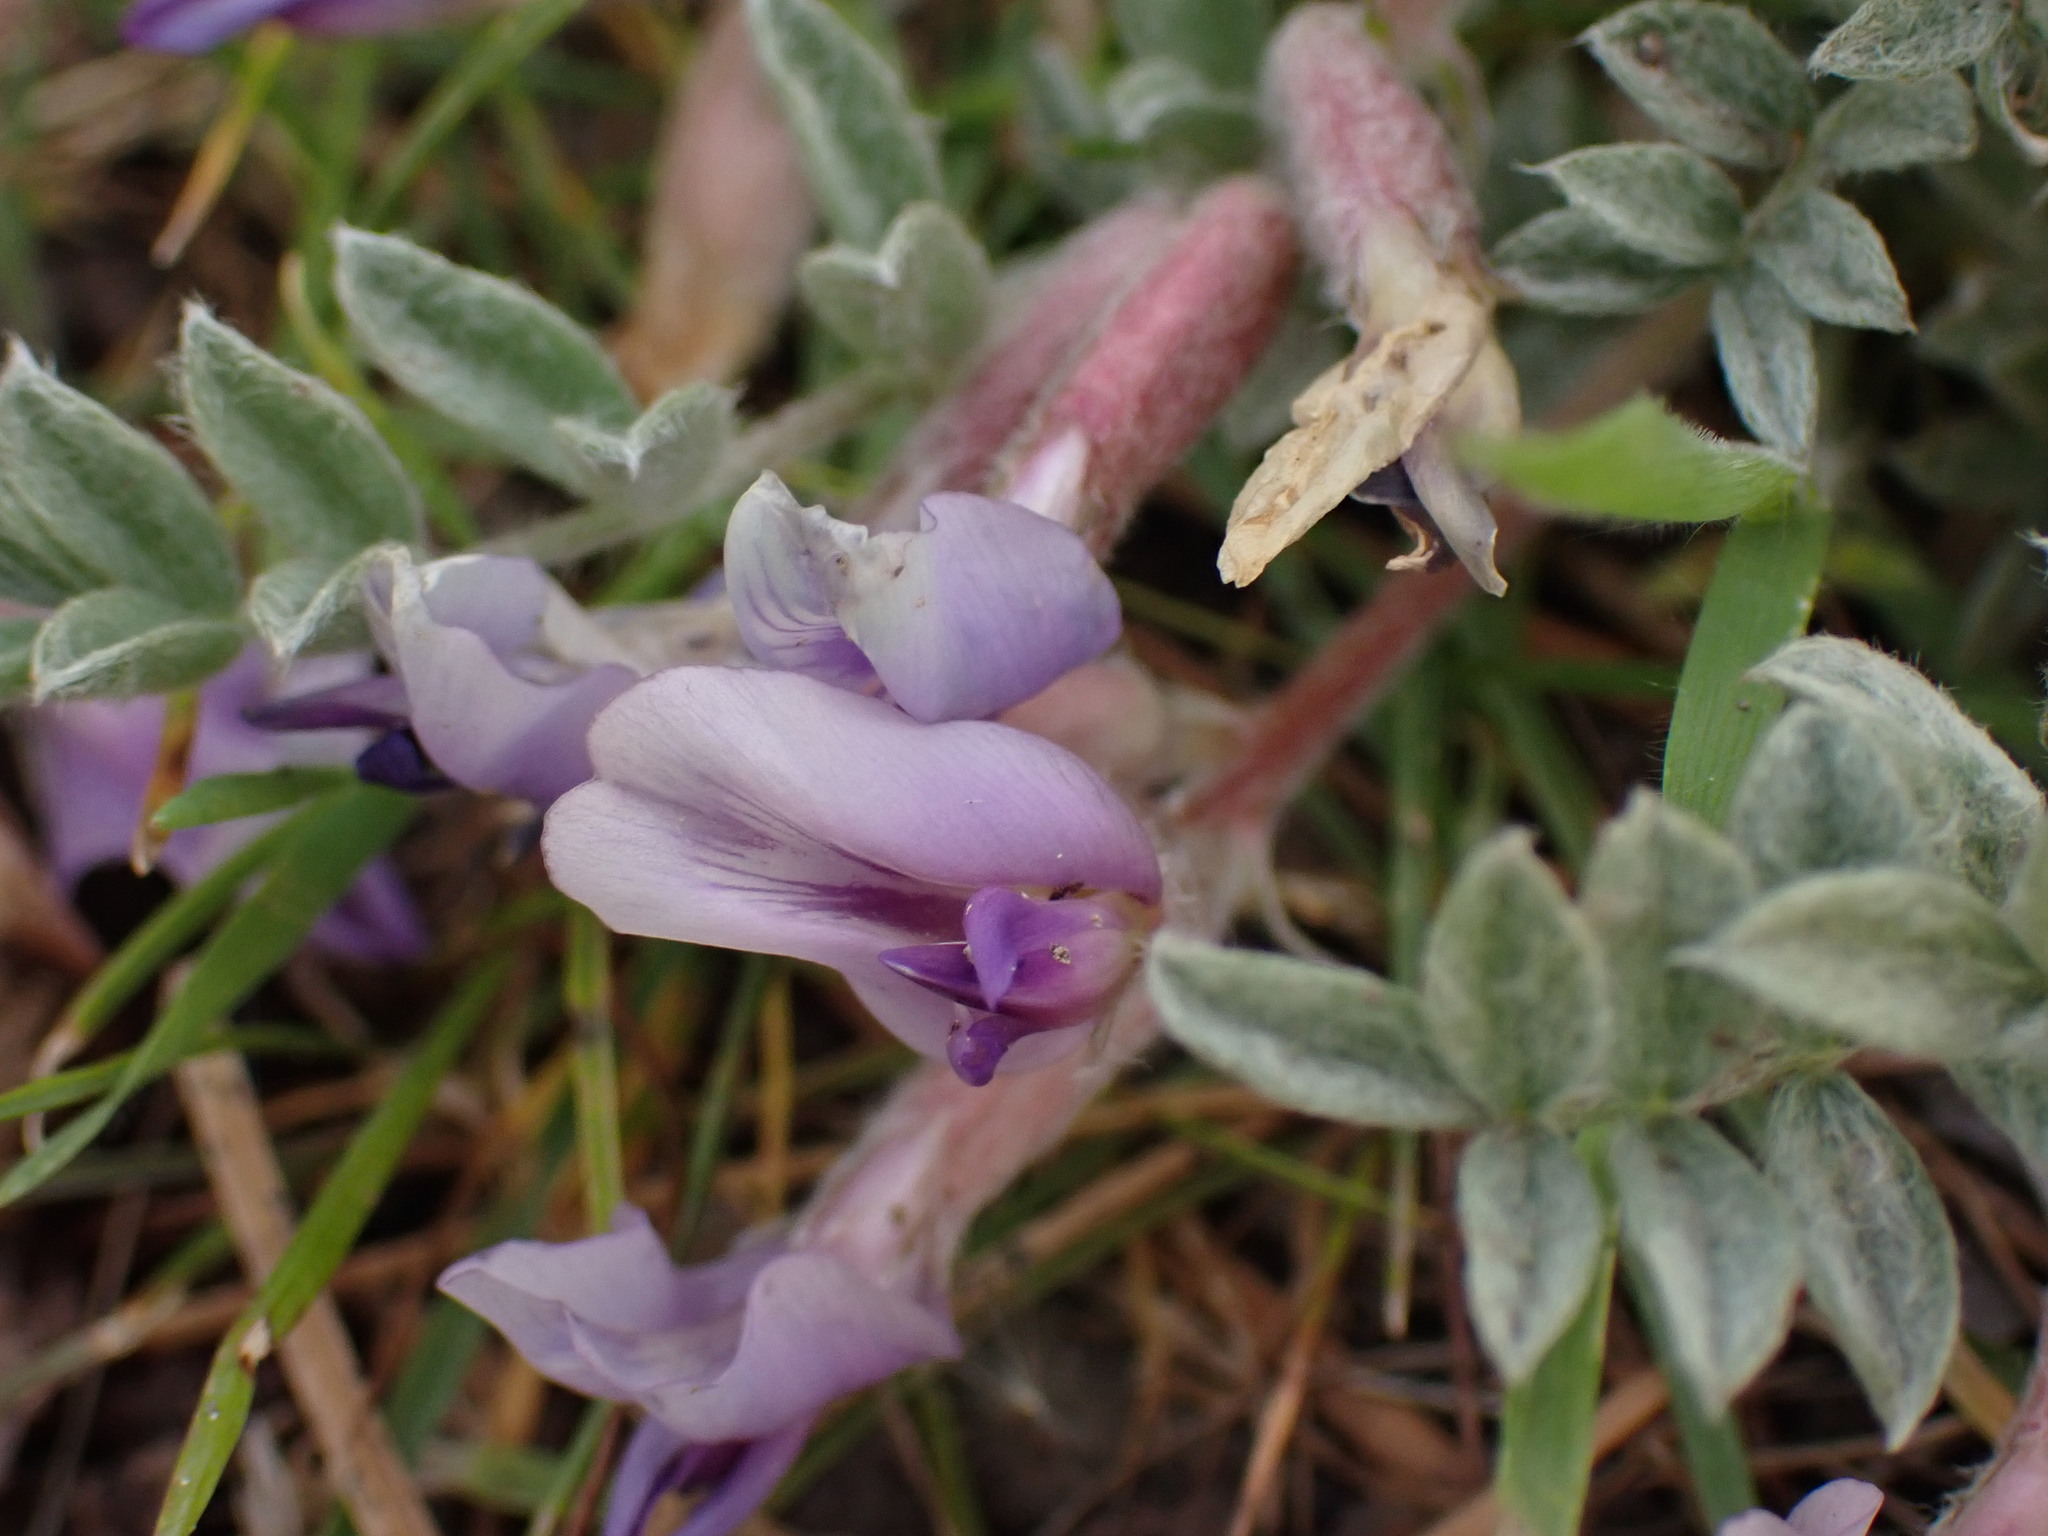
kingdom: Plantae
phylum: Tracheophyta
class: Magnoliopsida
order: Fabales
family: Fabaceae
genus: Astragalus
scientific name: Astragalus purshii
